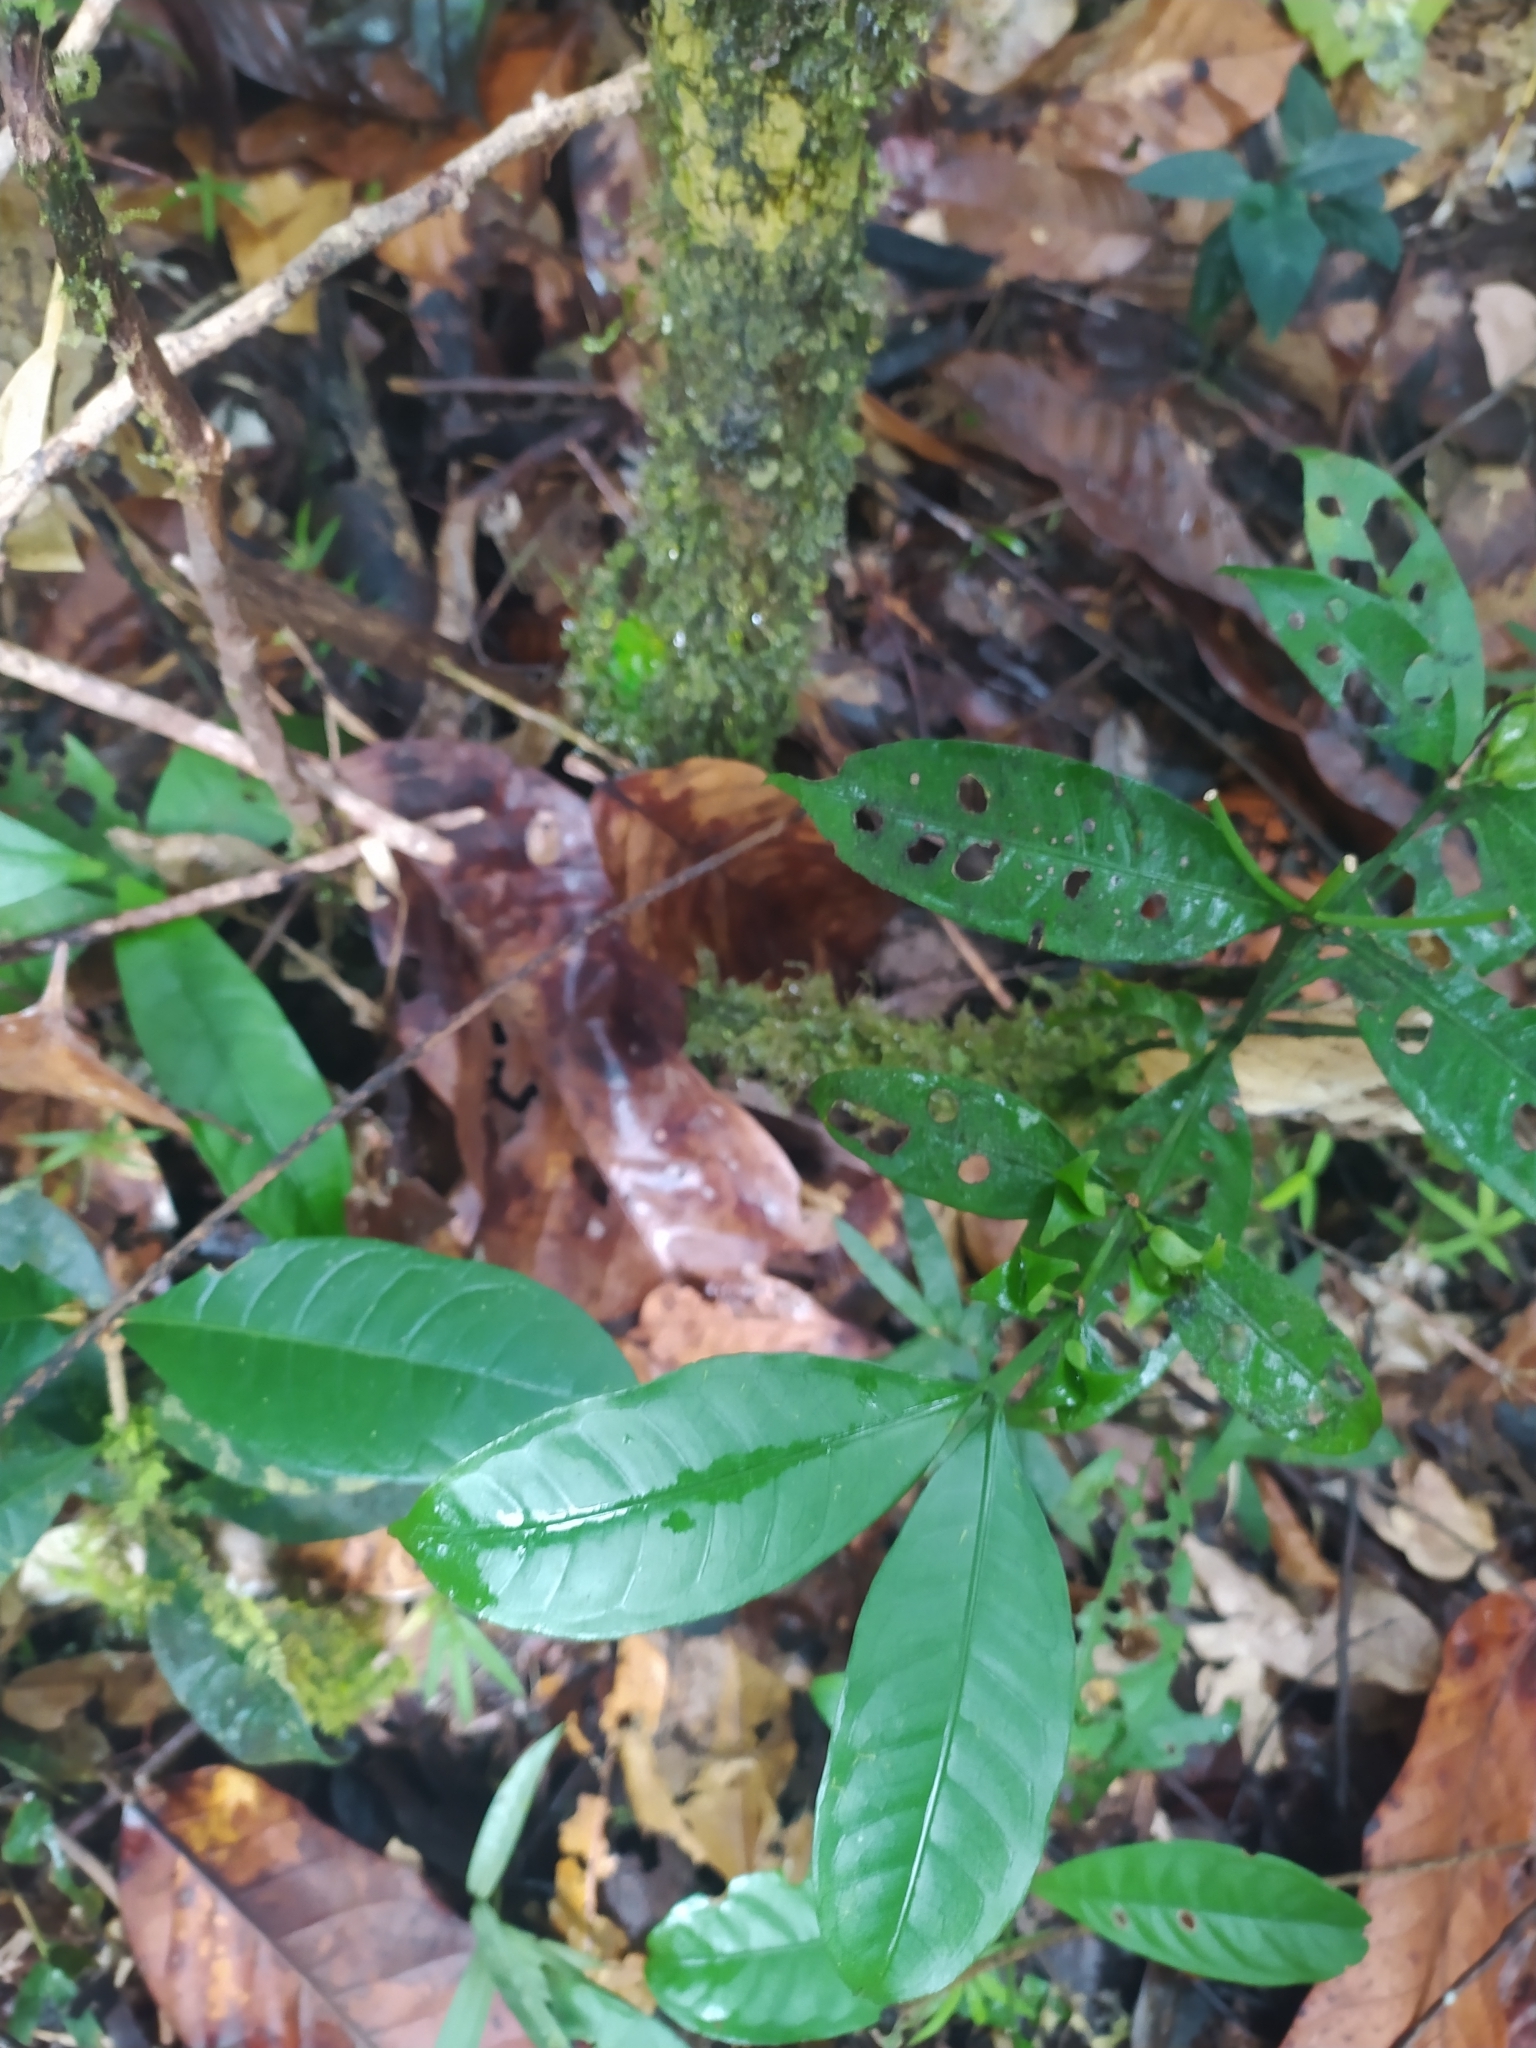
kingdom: Plantae
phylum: Tracheophyta
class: Magnoliopsida
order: Gentianales
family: Rubiaceae
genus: Faramea
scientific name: Faramea guianensis
